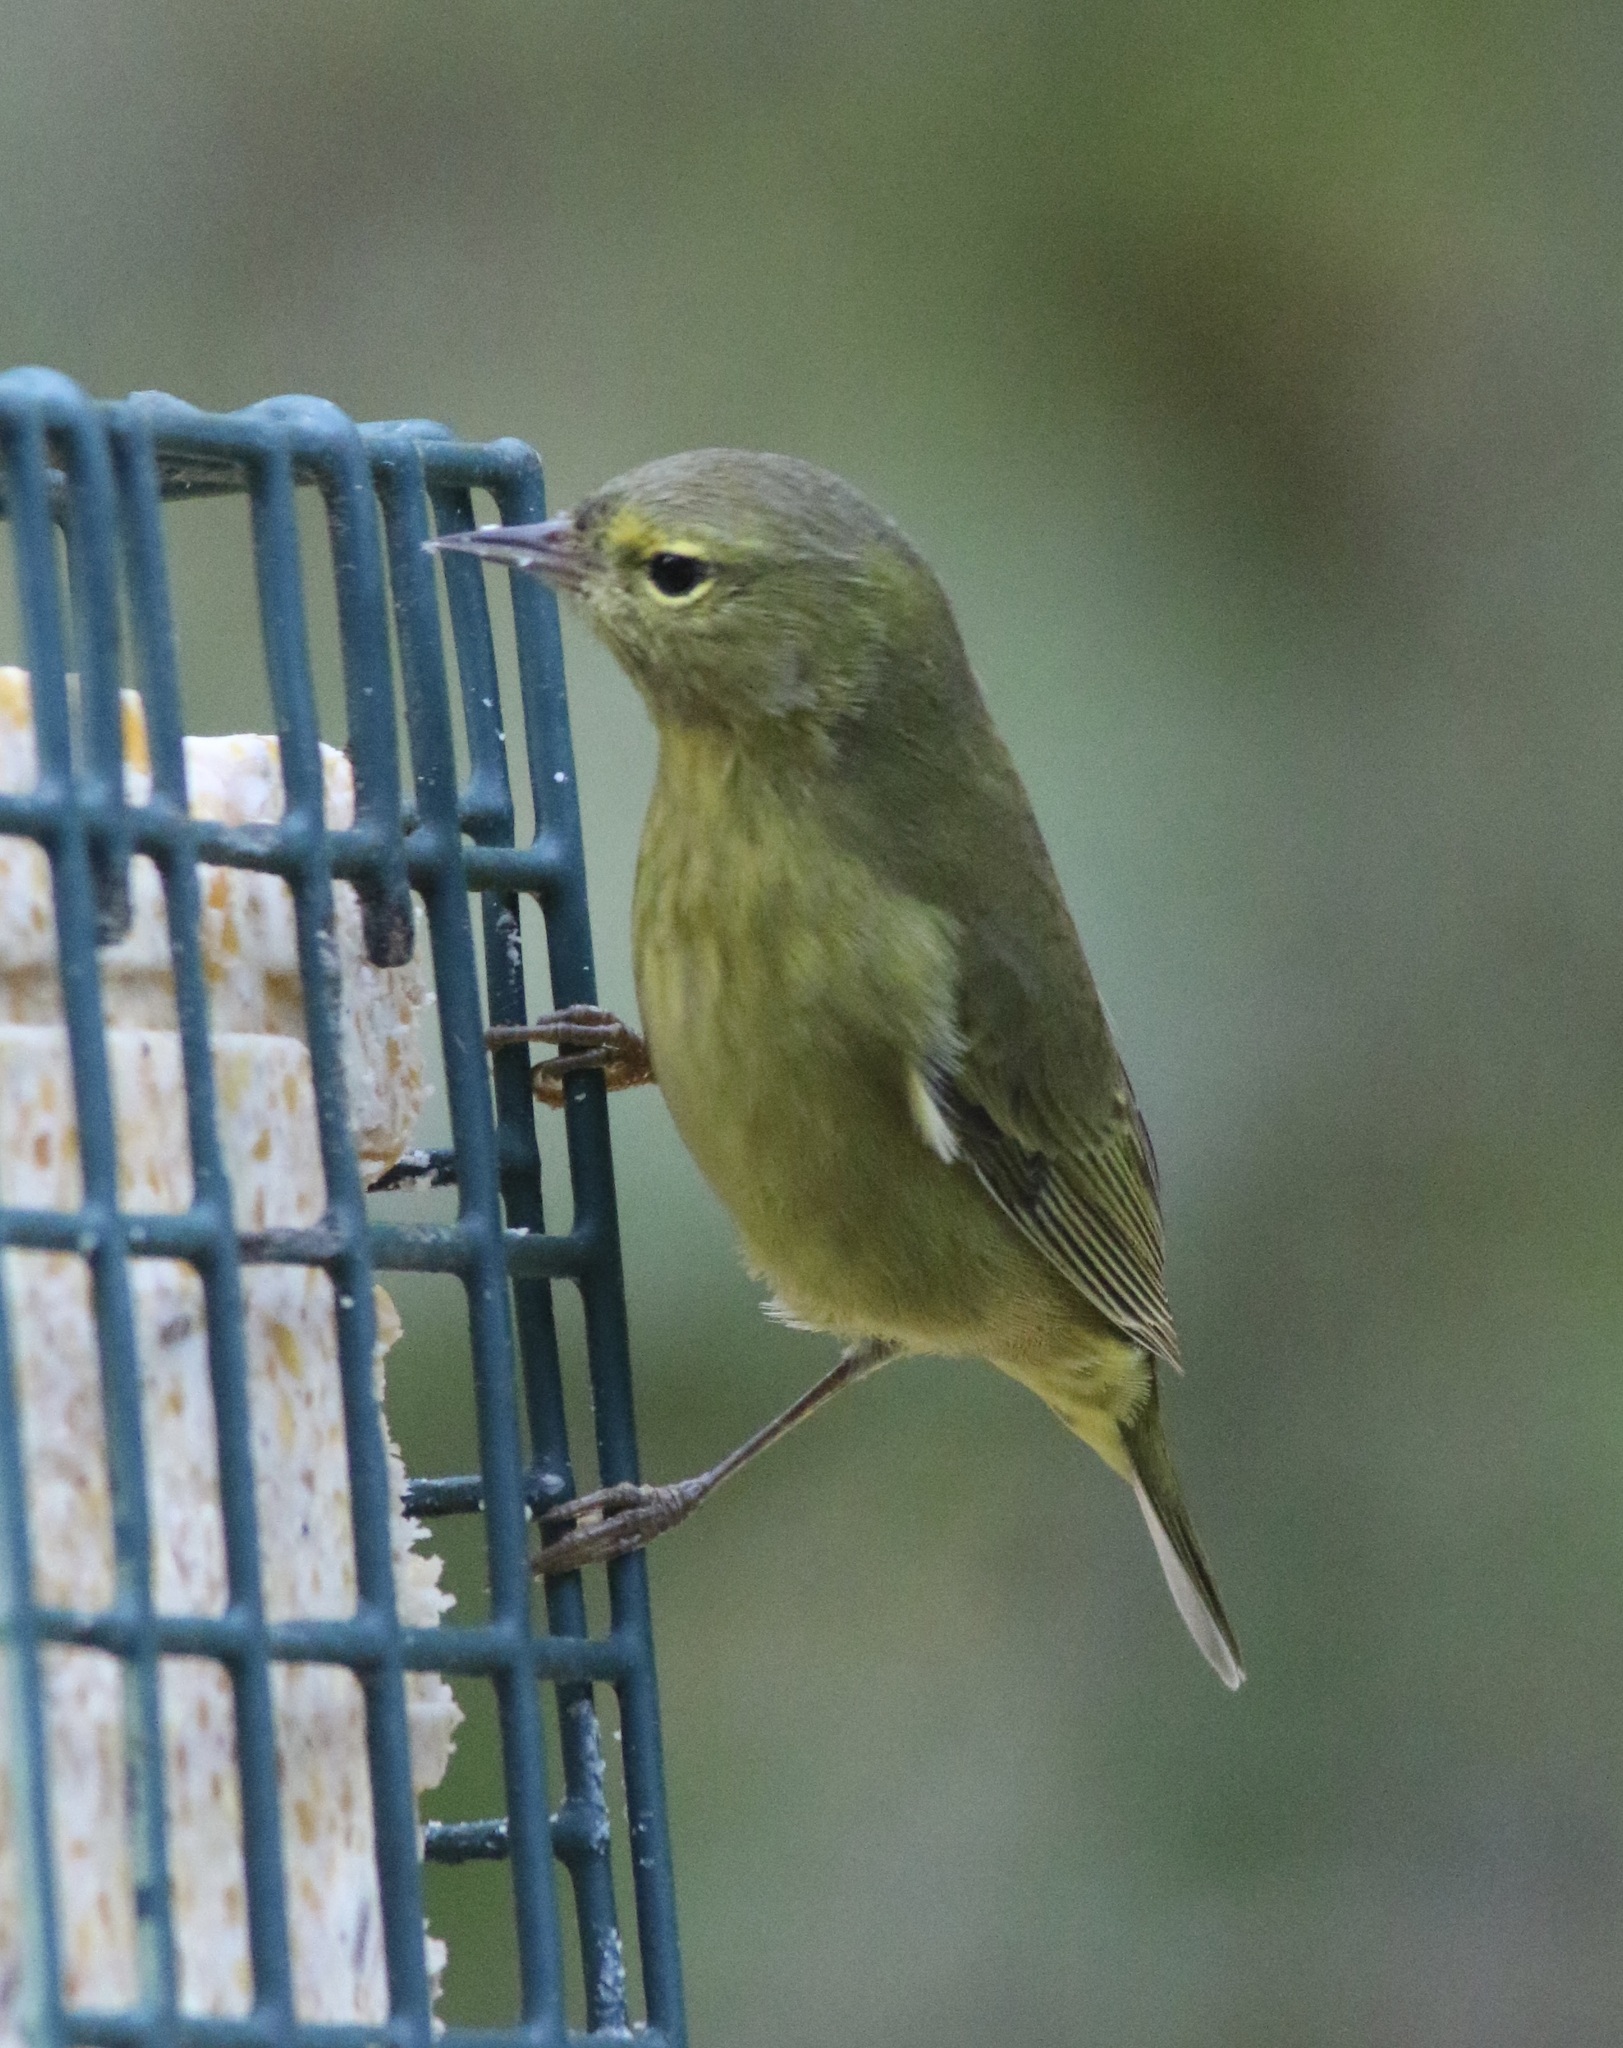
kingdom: Animalia
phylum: Chordata
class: Aves
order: Passeriformes
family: Parulidae
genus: Leiothlypis
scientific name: Leiothlypis celata
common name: Orange-crowned warbler
